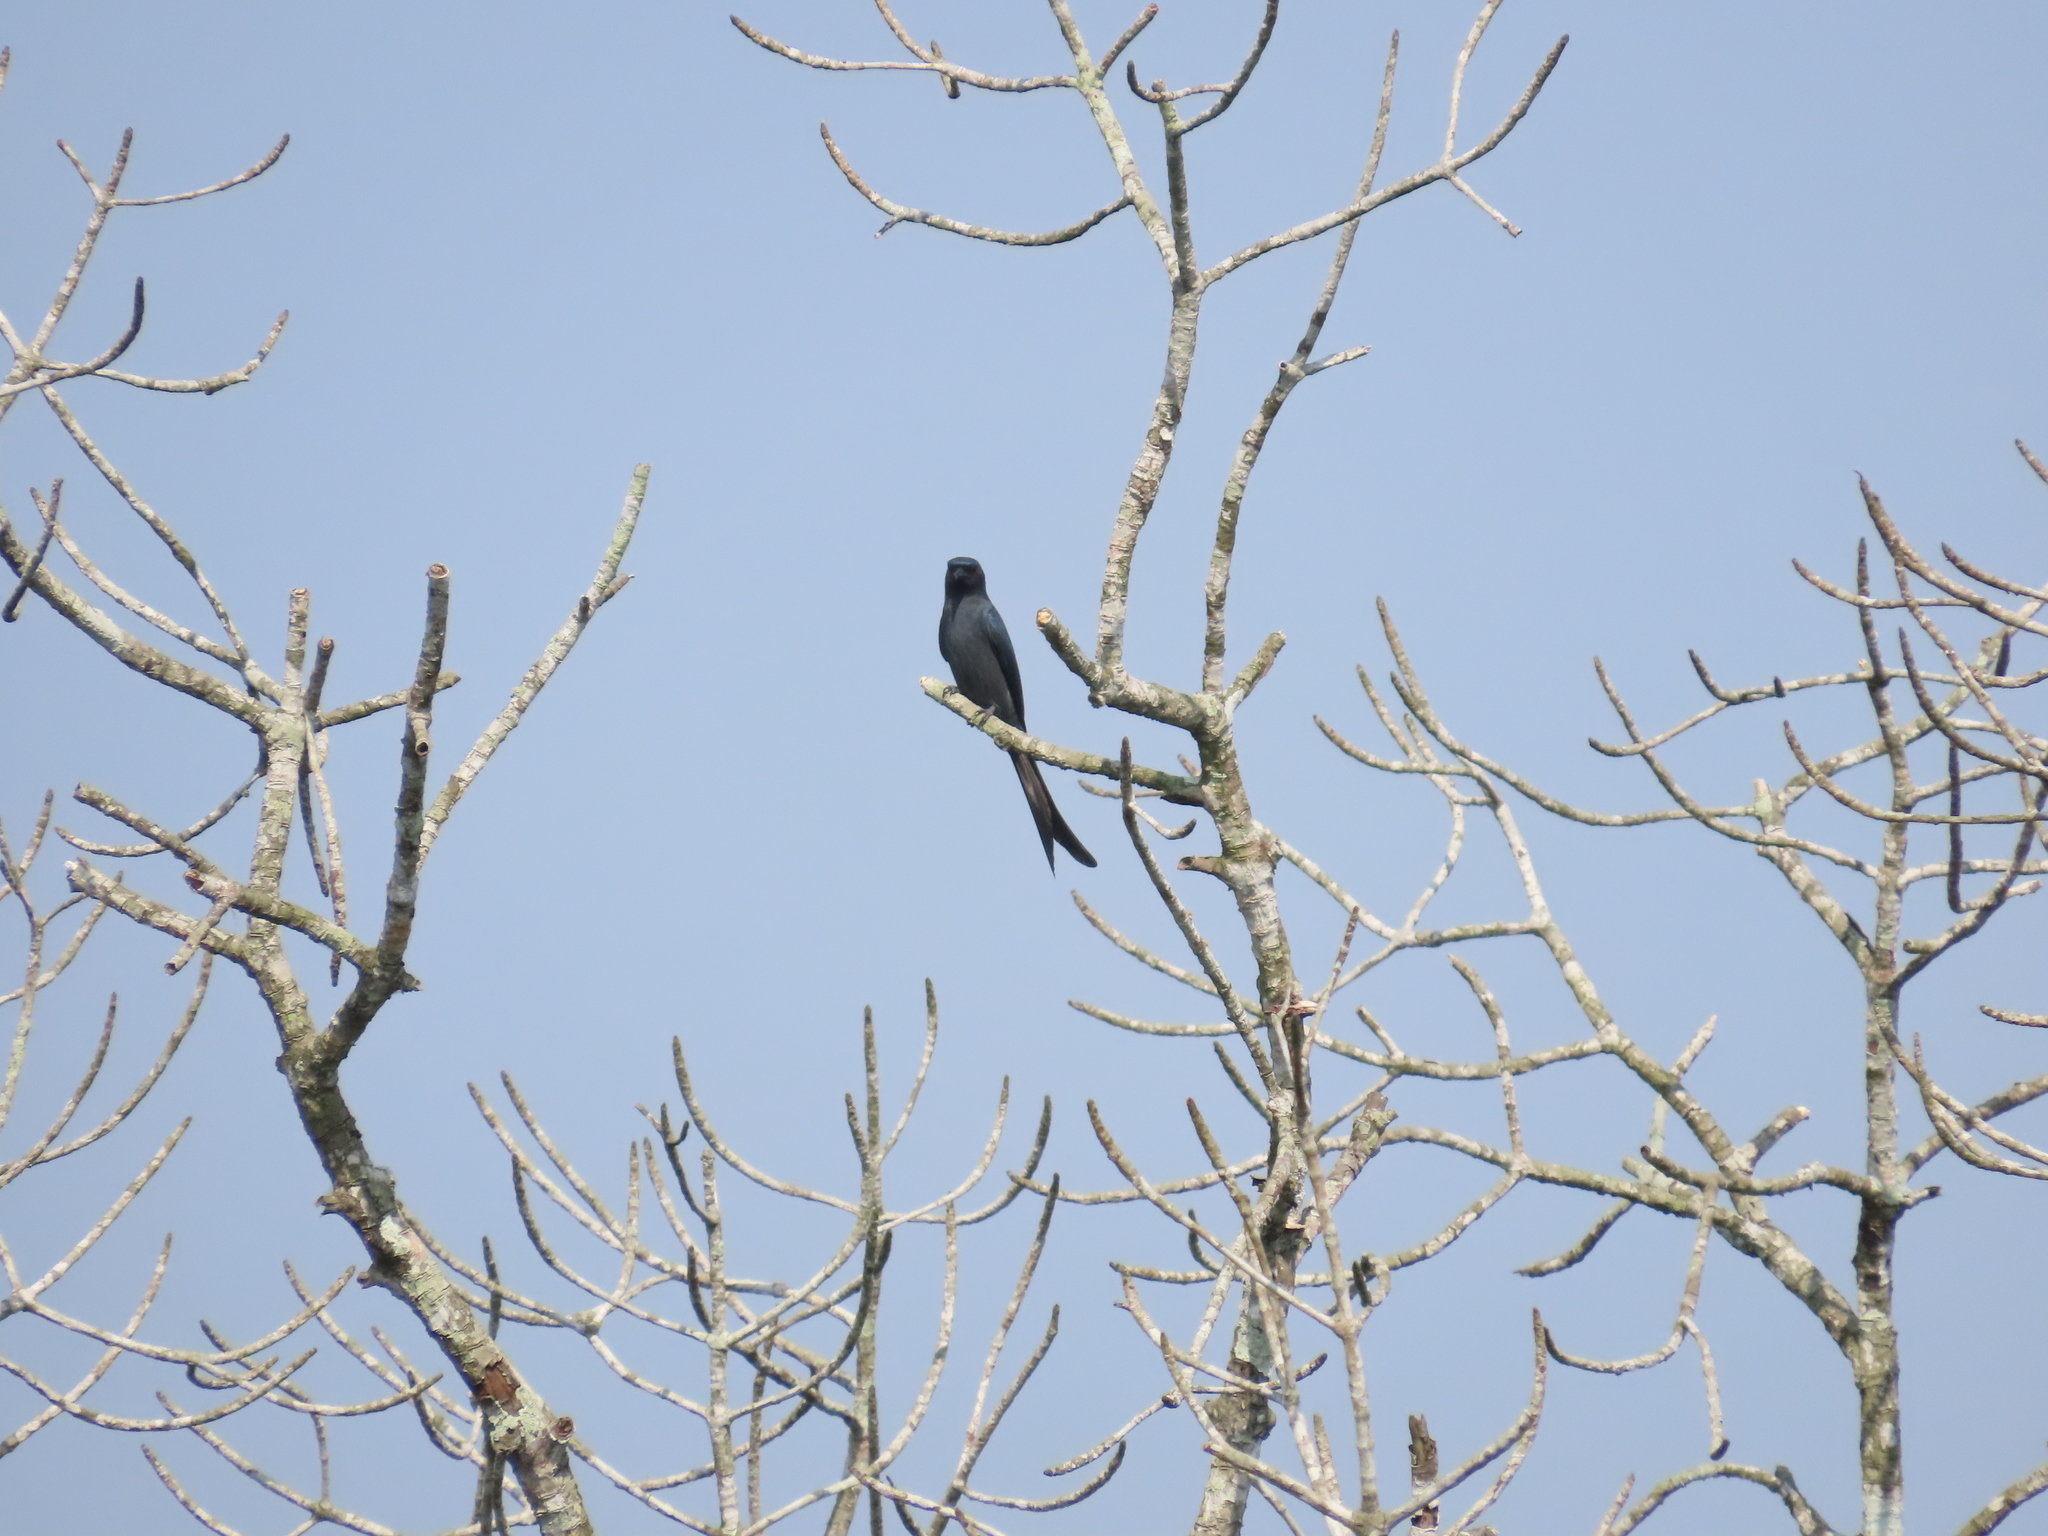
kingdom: Animalia
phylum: Chordata
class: Aves
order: Passeriformes
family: Dicruridae
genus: Dicrurus
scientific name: Dicrurus leucophaeus
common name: Ashy drongo
